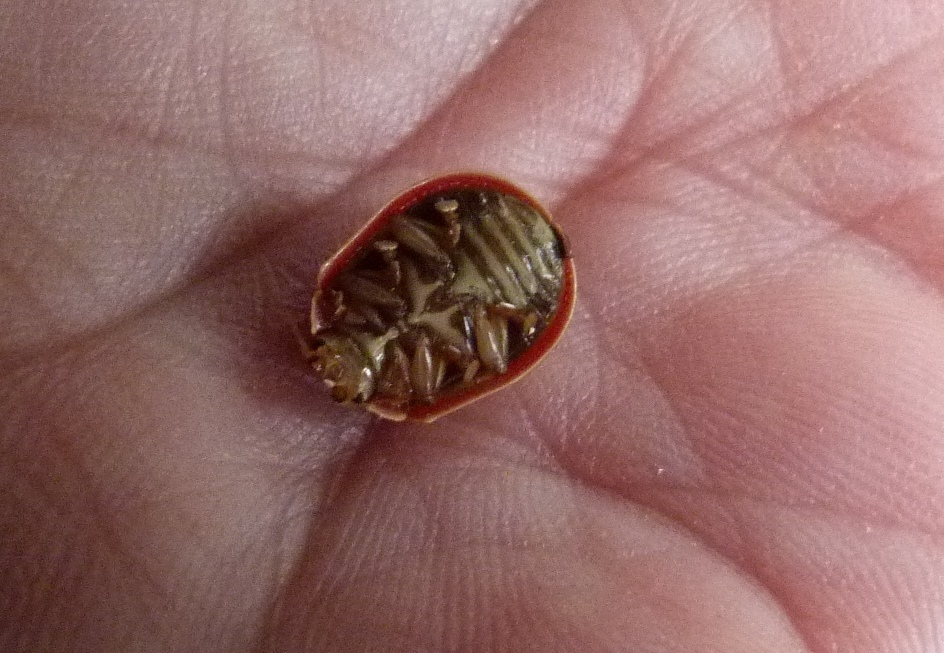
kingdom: Animalia
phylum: Arthropoda
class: Insecta
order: Coleoptera
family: Chrysomelidae
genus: Paropsis
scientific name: Paropsis charybdis
